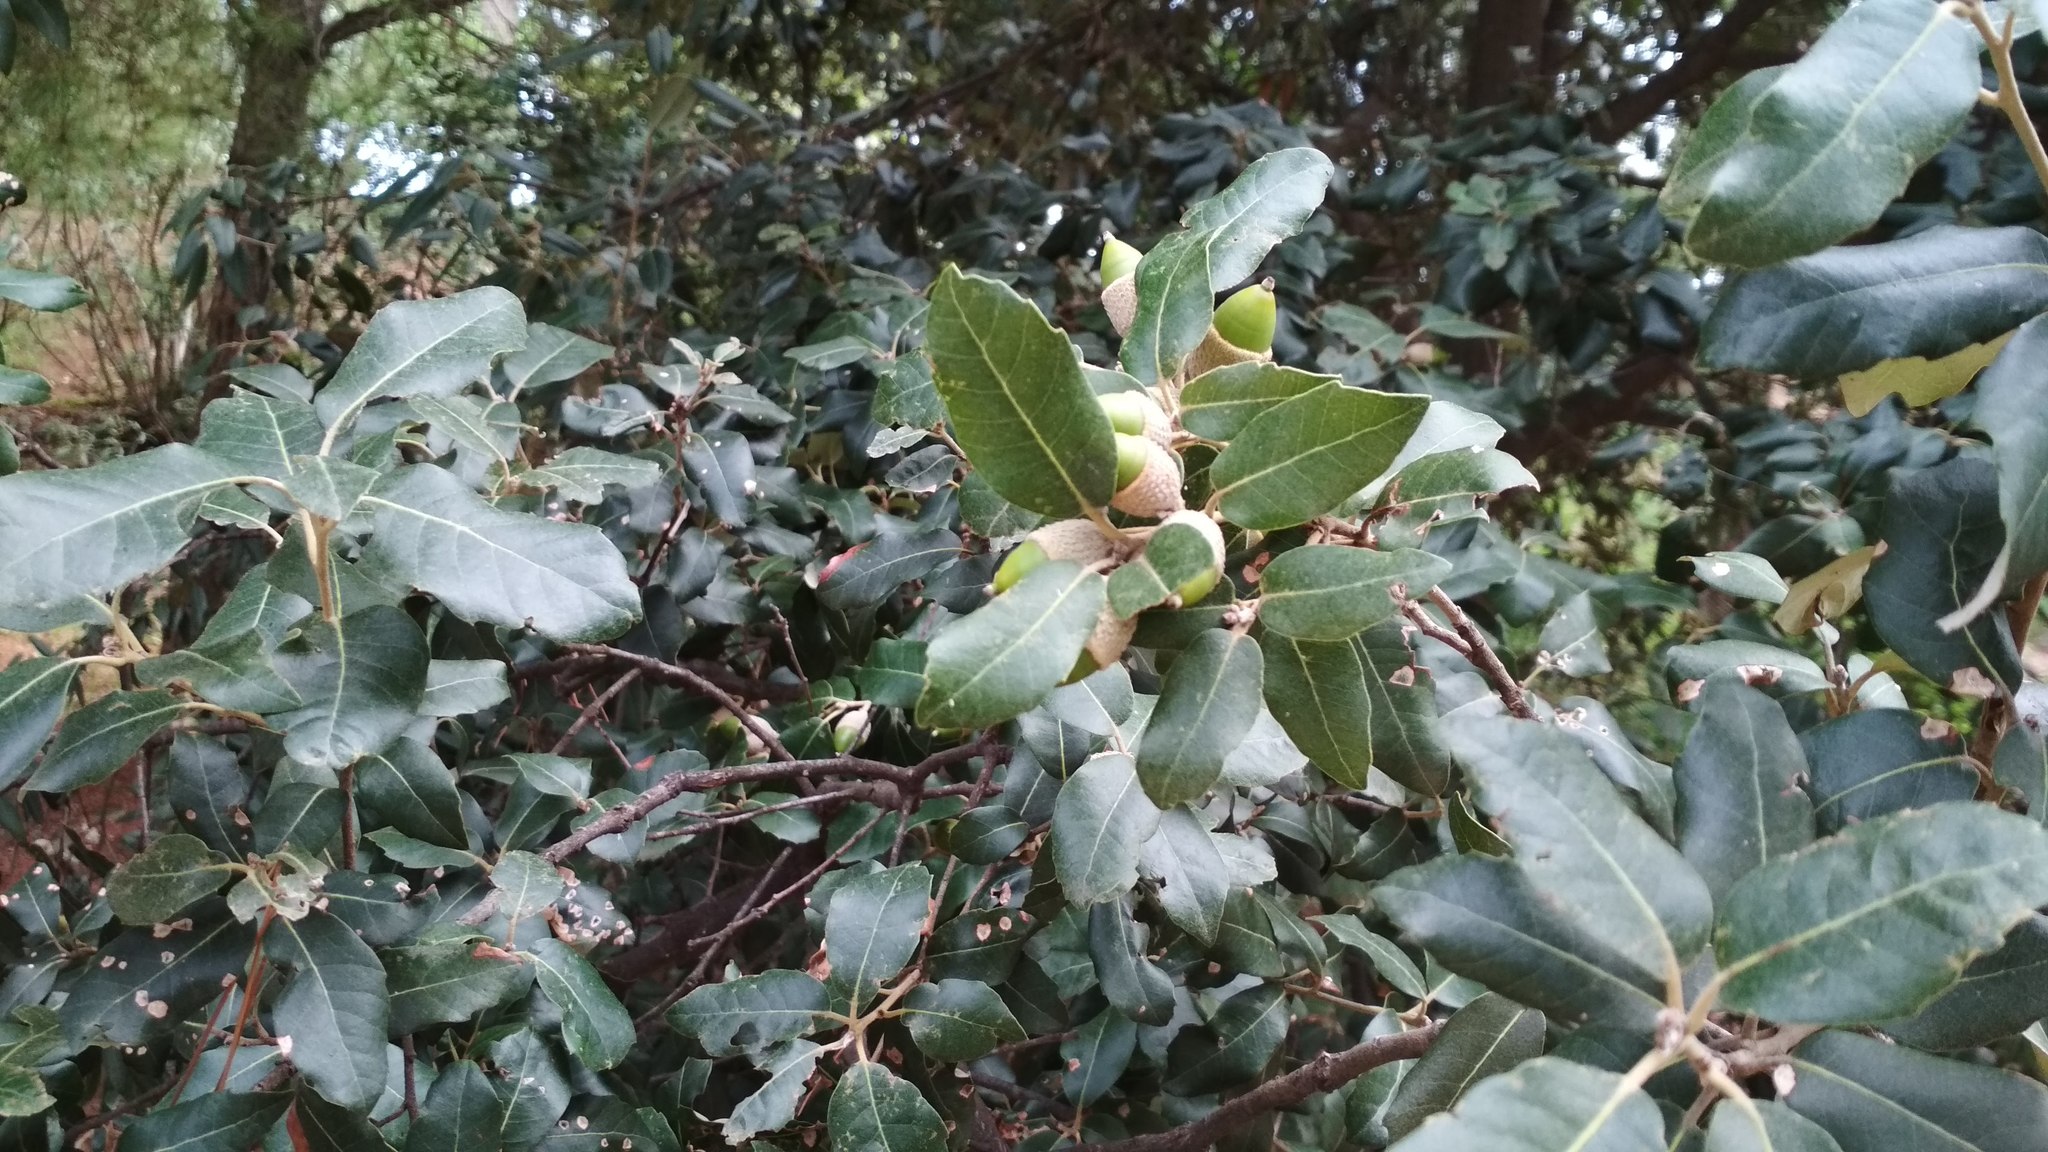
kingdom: Plantae
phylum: Tracheophyta
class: Magnoliopsida
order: Fagales
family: Fagaceae
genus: Quercus
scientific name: Quercus ilex
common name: Evergreen oak
